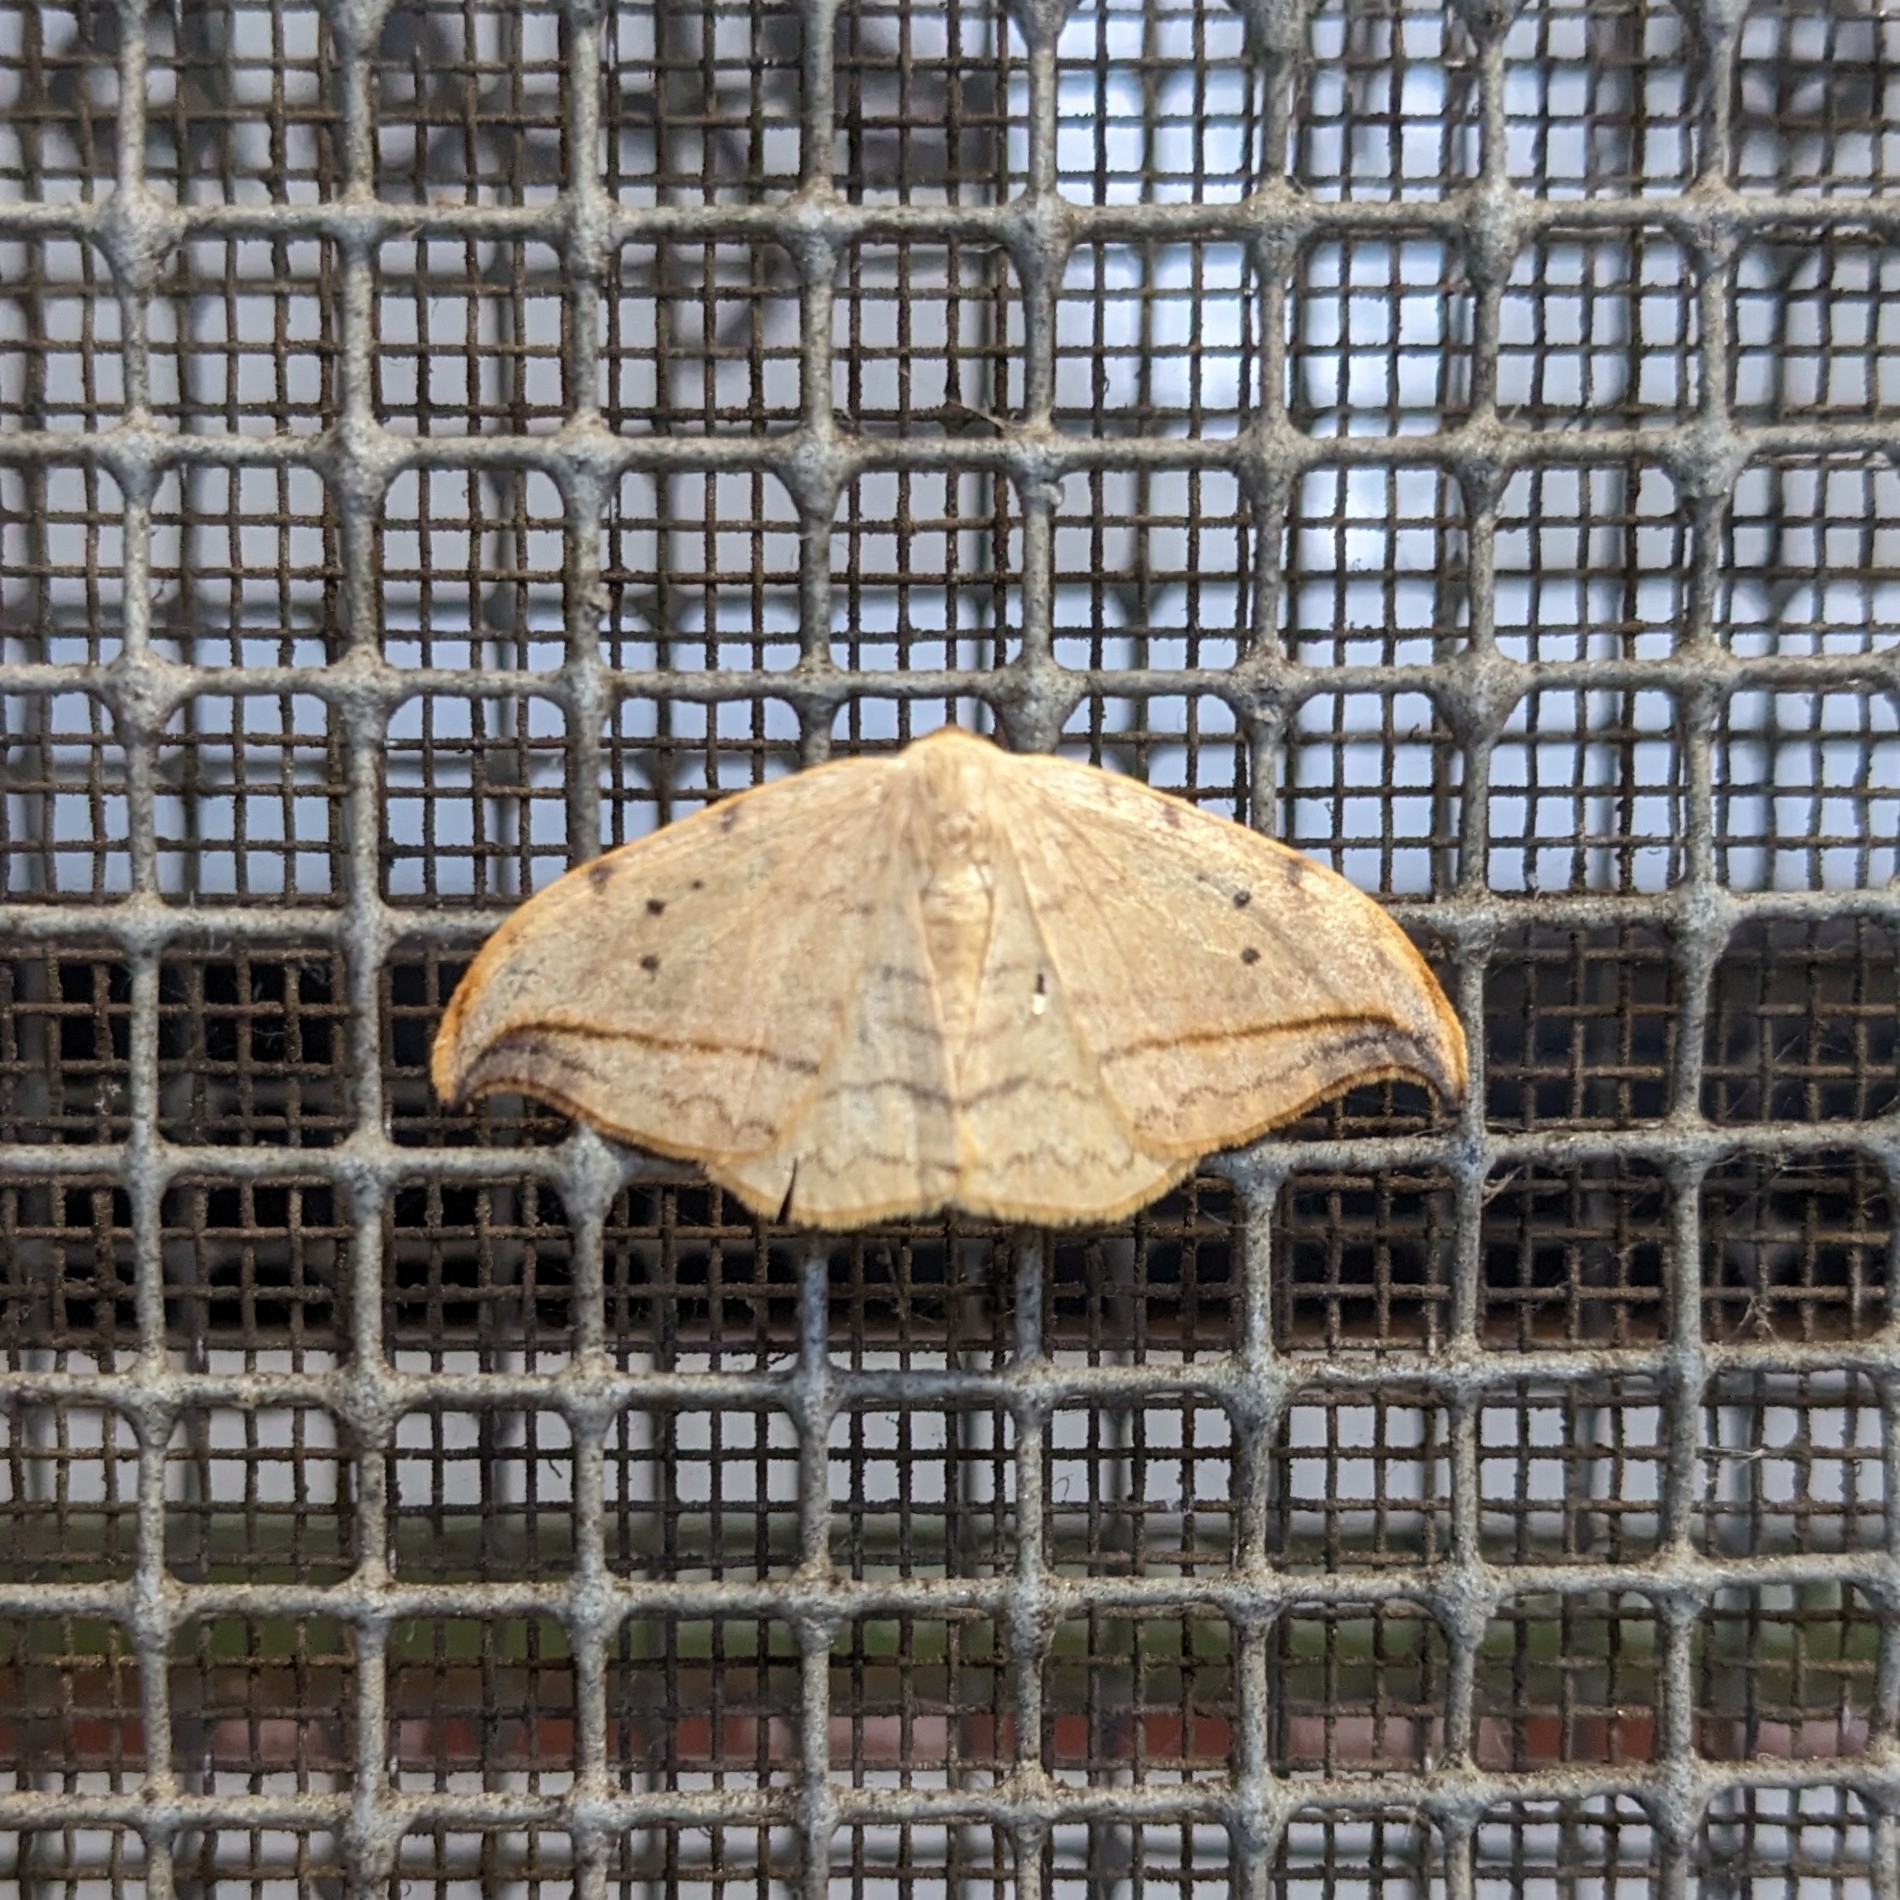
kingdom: Animalia
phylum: Arthropoda
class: Insecta
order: Lepidoptera
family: Drepanidae
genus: Drepana
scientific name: Drepana arcuata
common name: Arched hooktip moth
